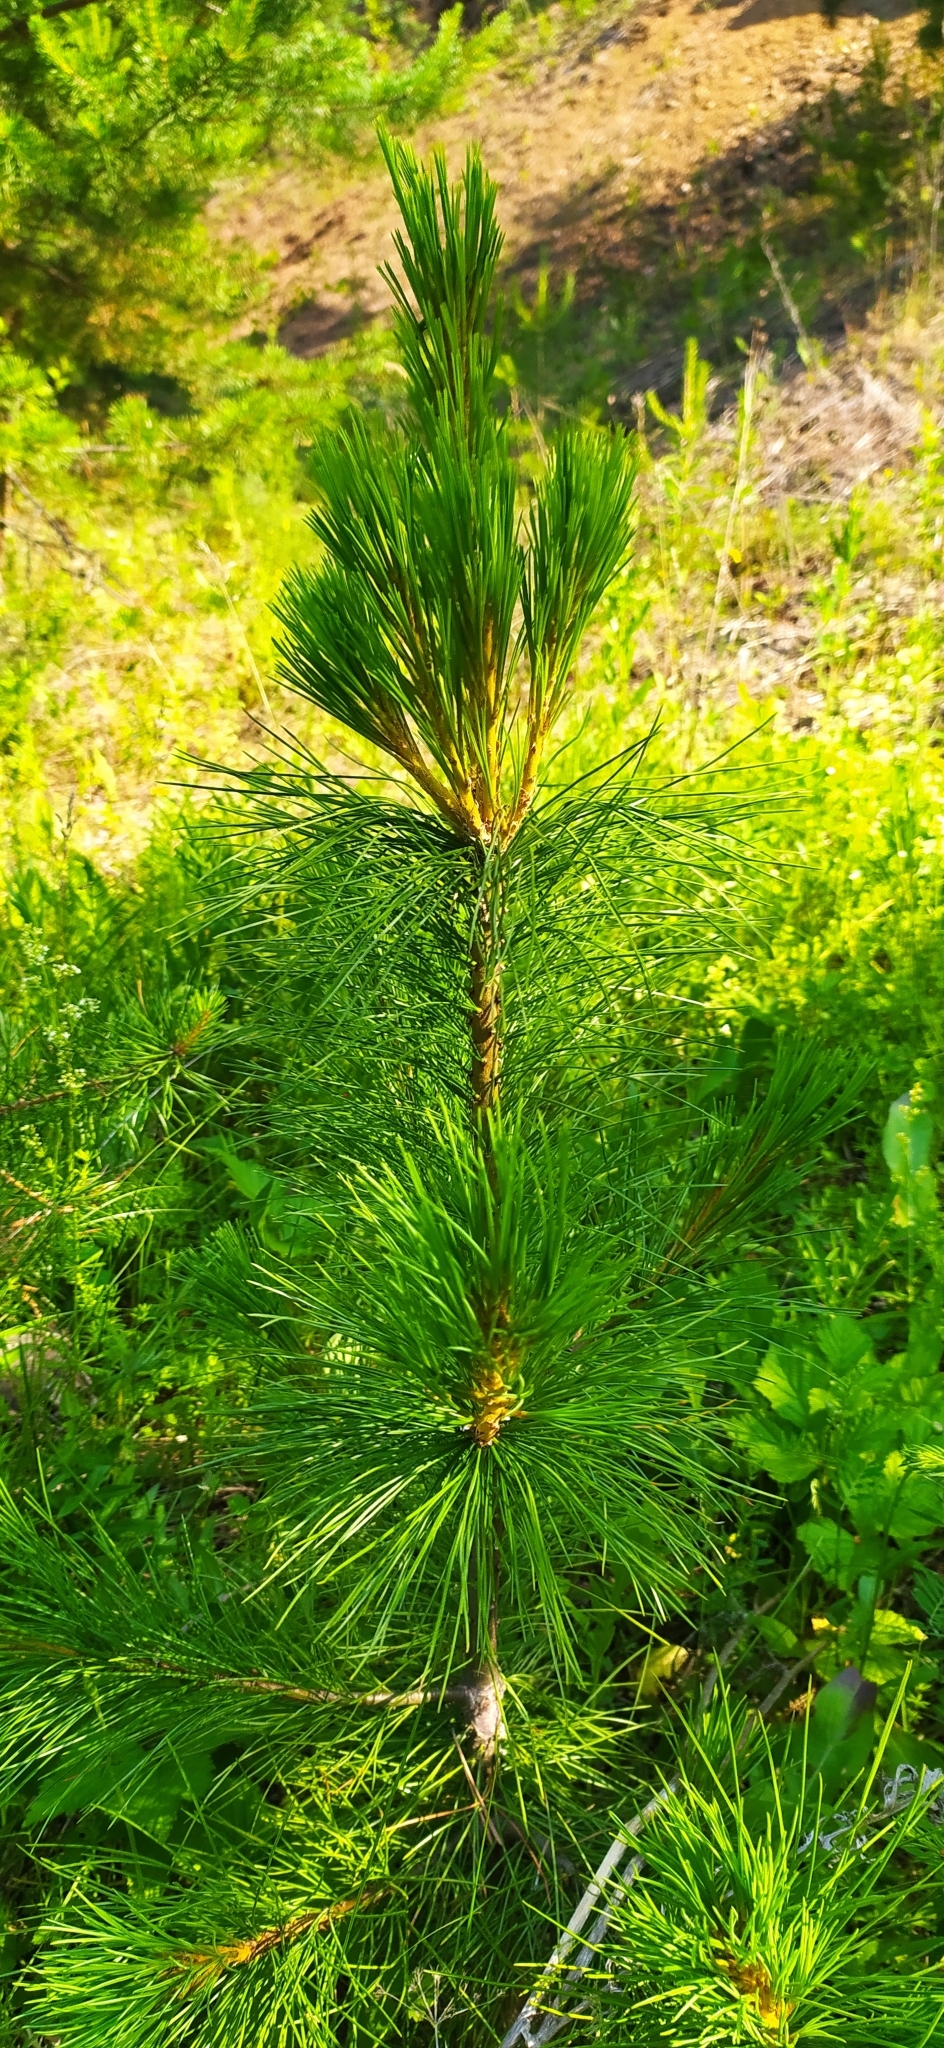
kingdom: Plantae
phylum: Tracheophyta
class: Pinopsida
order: Pinales
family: Pinaceae
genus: Pinus
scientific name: Pinus sibirica
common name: Siberian pine
